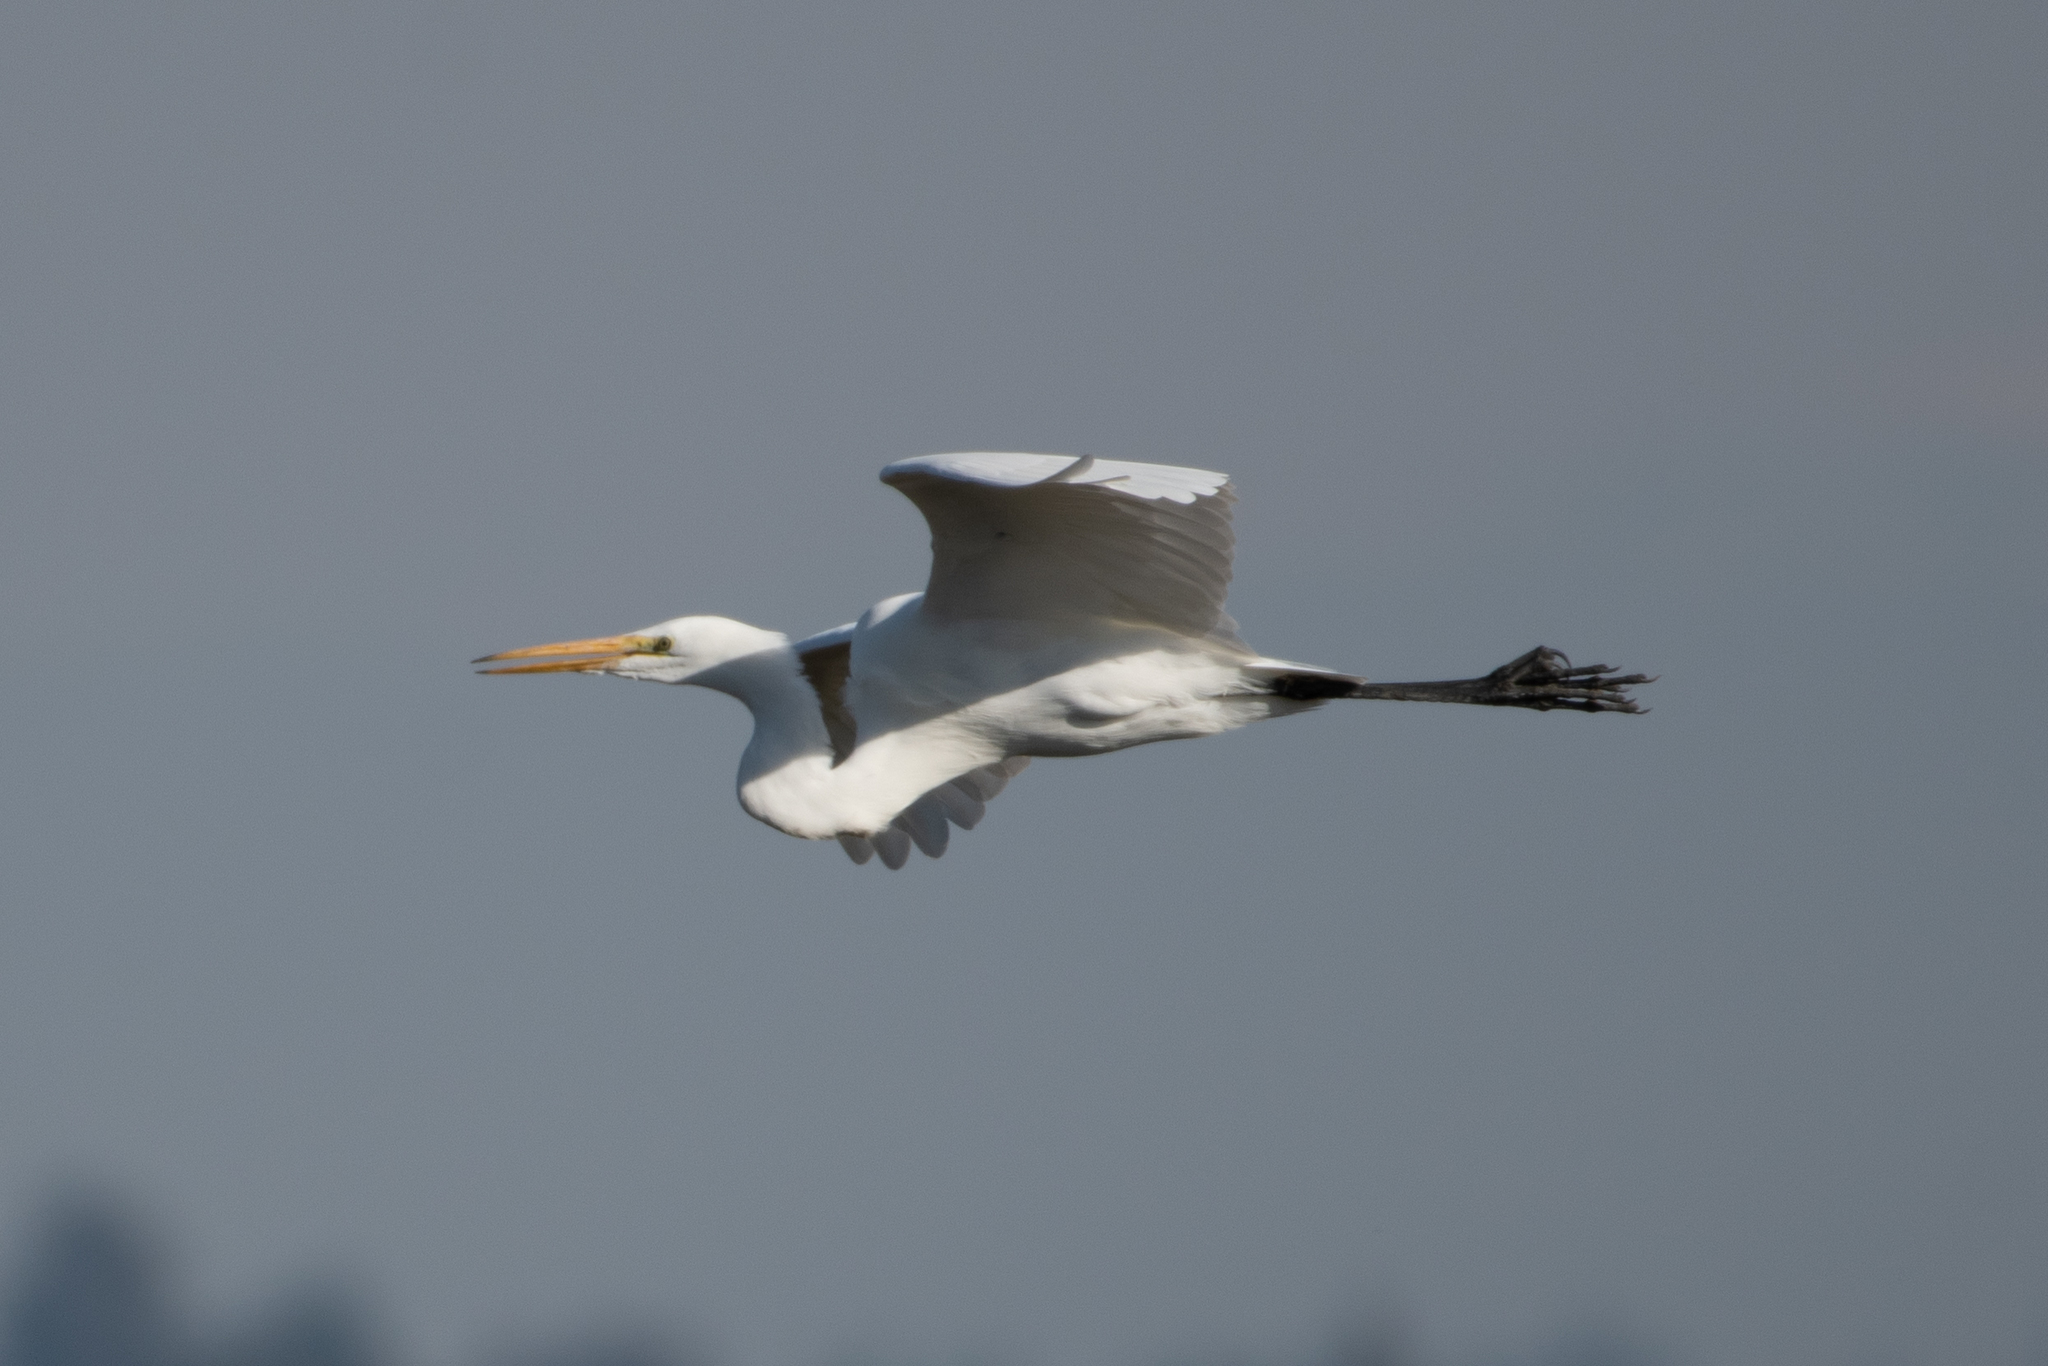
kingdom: Animalia
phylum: Chordata
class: Aves
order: Pelecaniformes
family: Ardeidae
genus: Ardea
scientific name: Ardea alba
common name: Great egret
